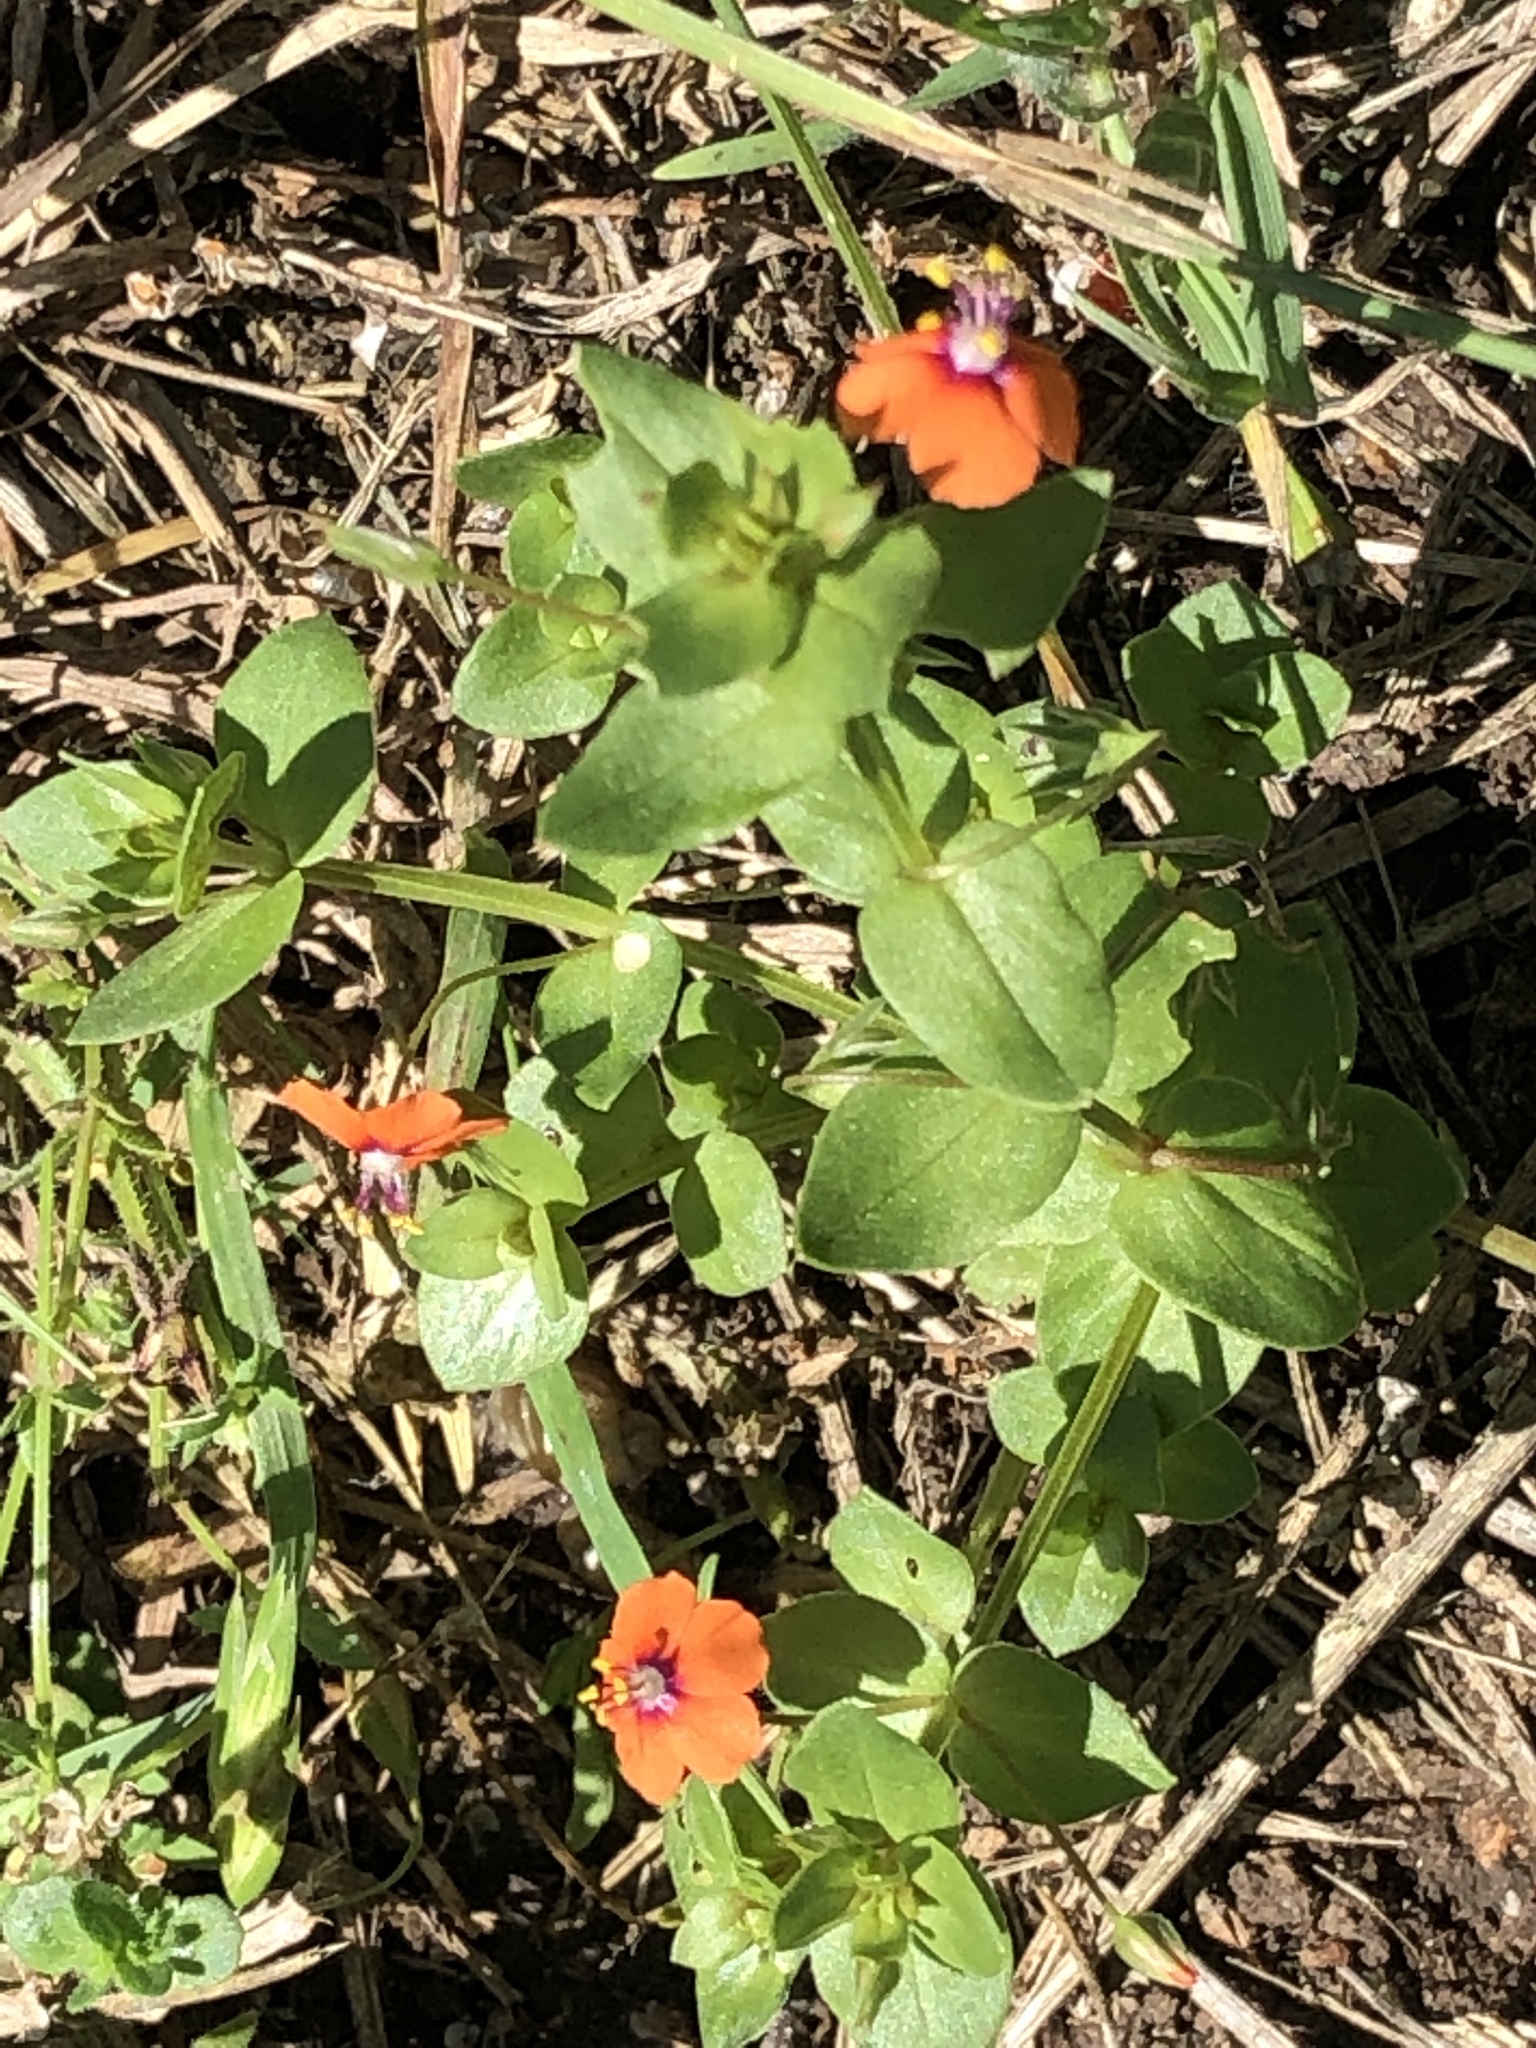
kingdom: Plantae
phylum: Tracheophyta
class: Magnoliopsida
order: Ericales
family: Primulaceae
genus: Lysimachia
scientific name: Lysimachia arvensis
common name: Scarlet pimpernel
